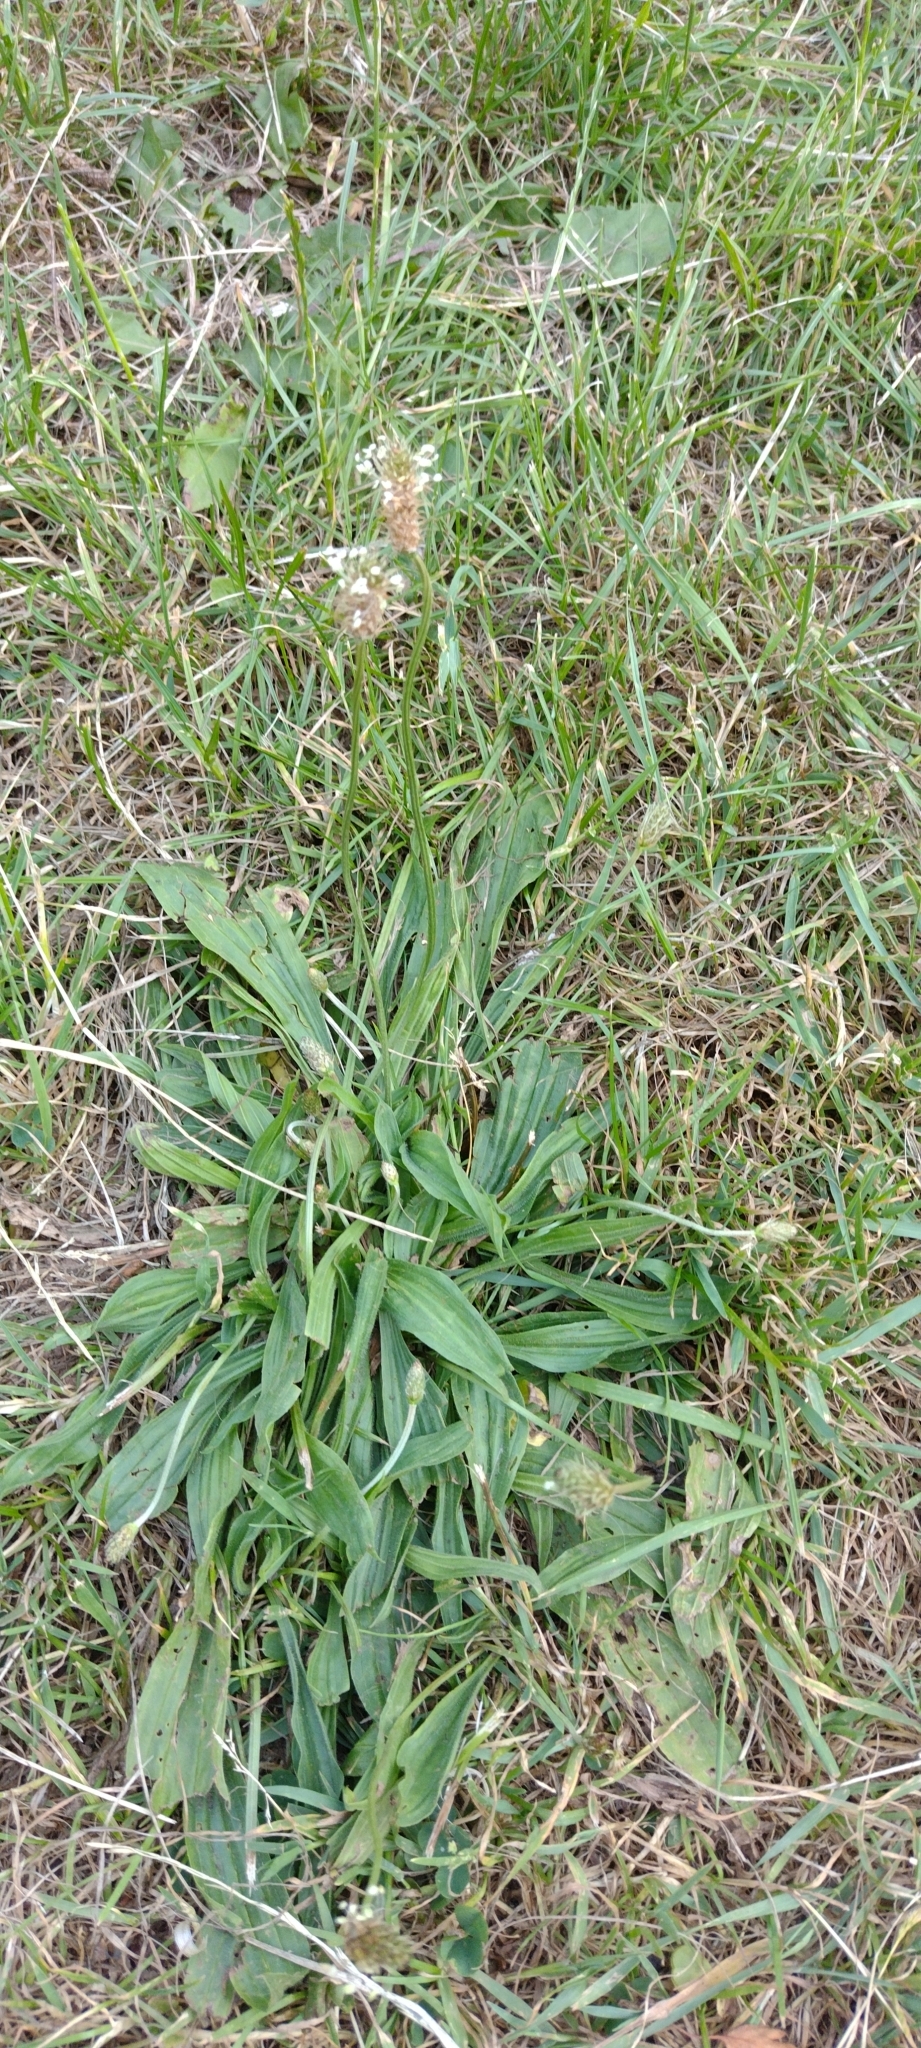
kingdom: Plantae
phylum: Tracheophyta
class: Magnoliopsida
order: Lamiales
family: Plantaginaceae
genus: Plantago
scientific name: Plantago lanceolata
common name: Ribwort plantain
